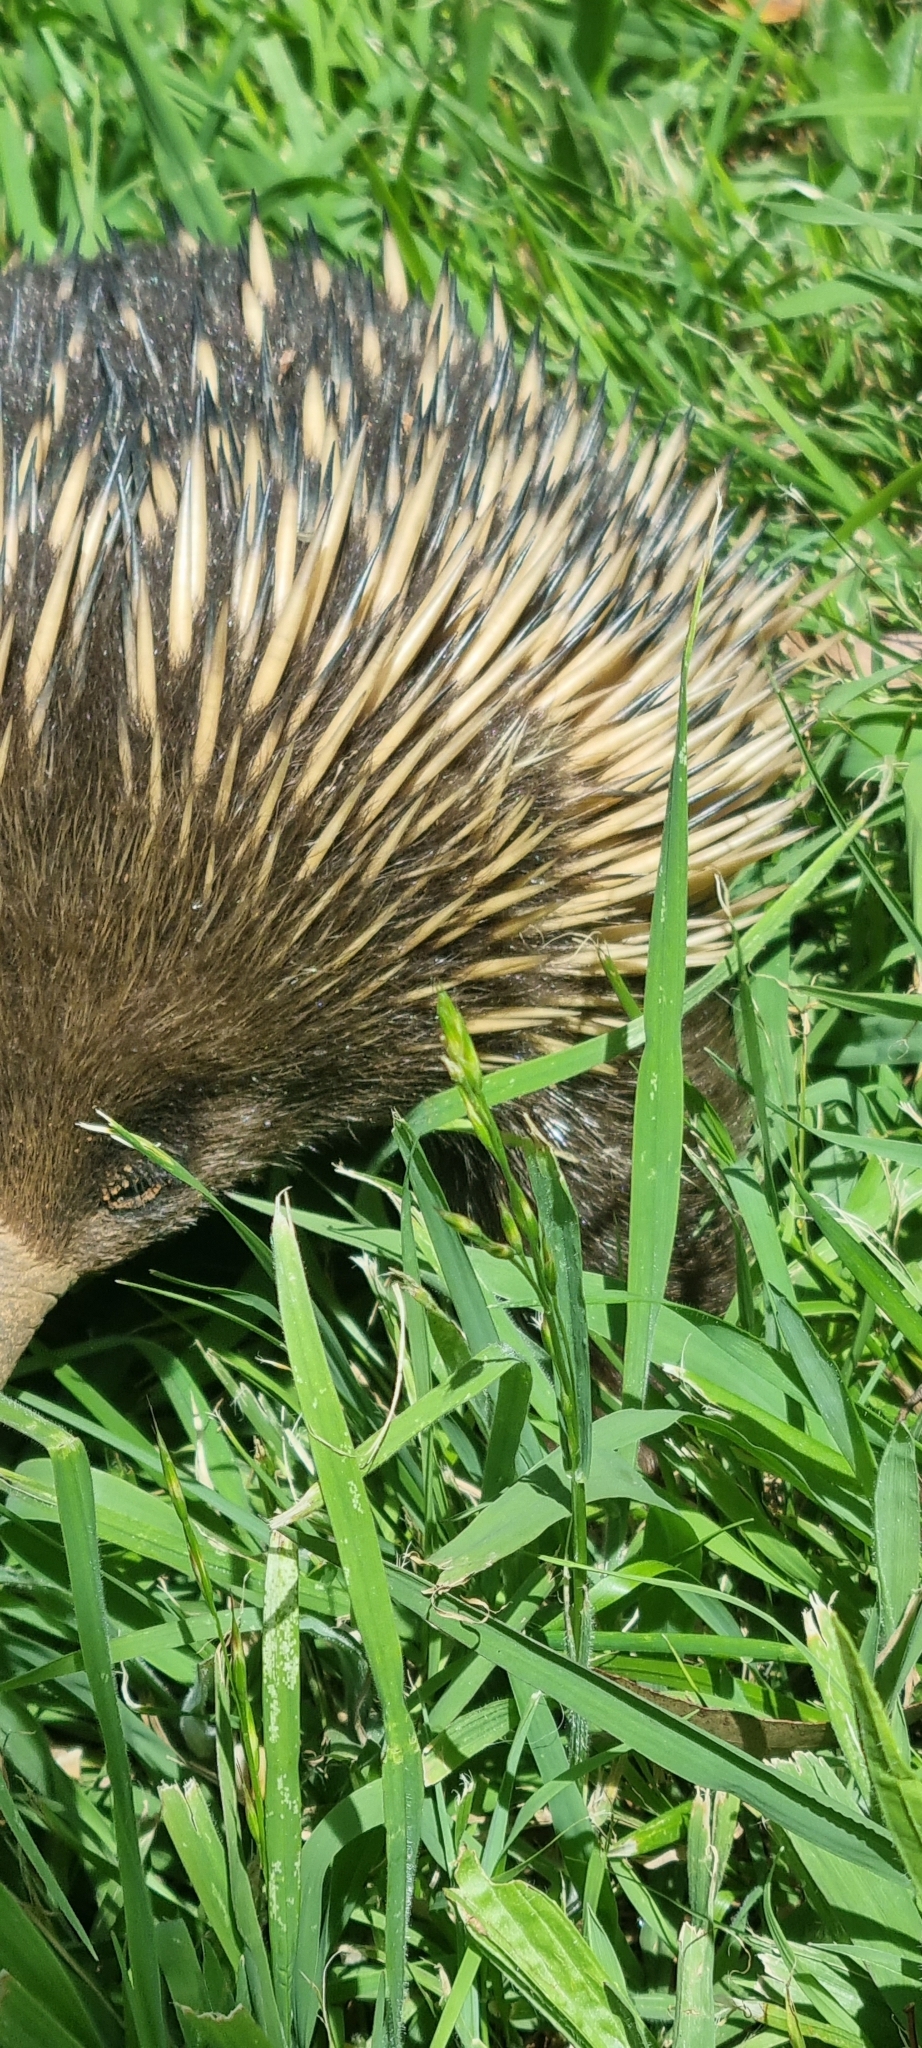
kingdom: Animalia
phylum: Chordata
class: Mammalia
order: Monotremata
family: Tachyglossidae
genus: Tachyglossus
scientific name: Tachyglossus aculeatus
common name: Short-beaked echidna
